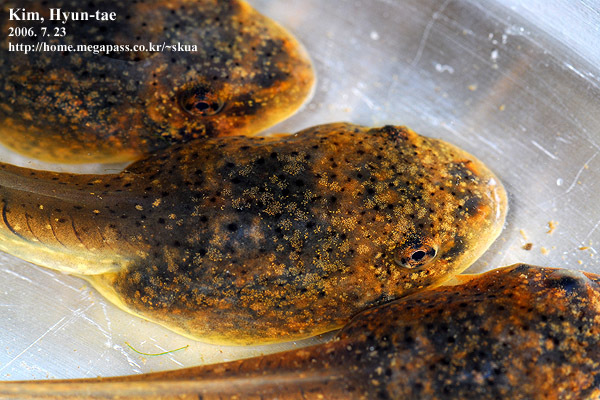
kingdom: Animalia
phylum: Chordata
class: Amphibia
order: Anura
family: Ranidae
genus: Lithobates
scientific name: Lithobates catesbeianus
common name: American bullfrog
